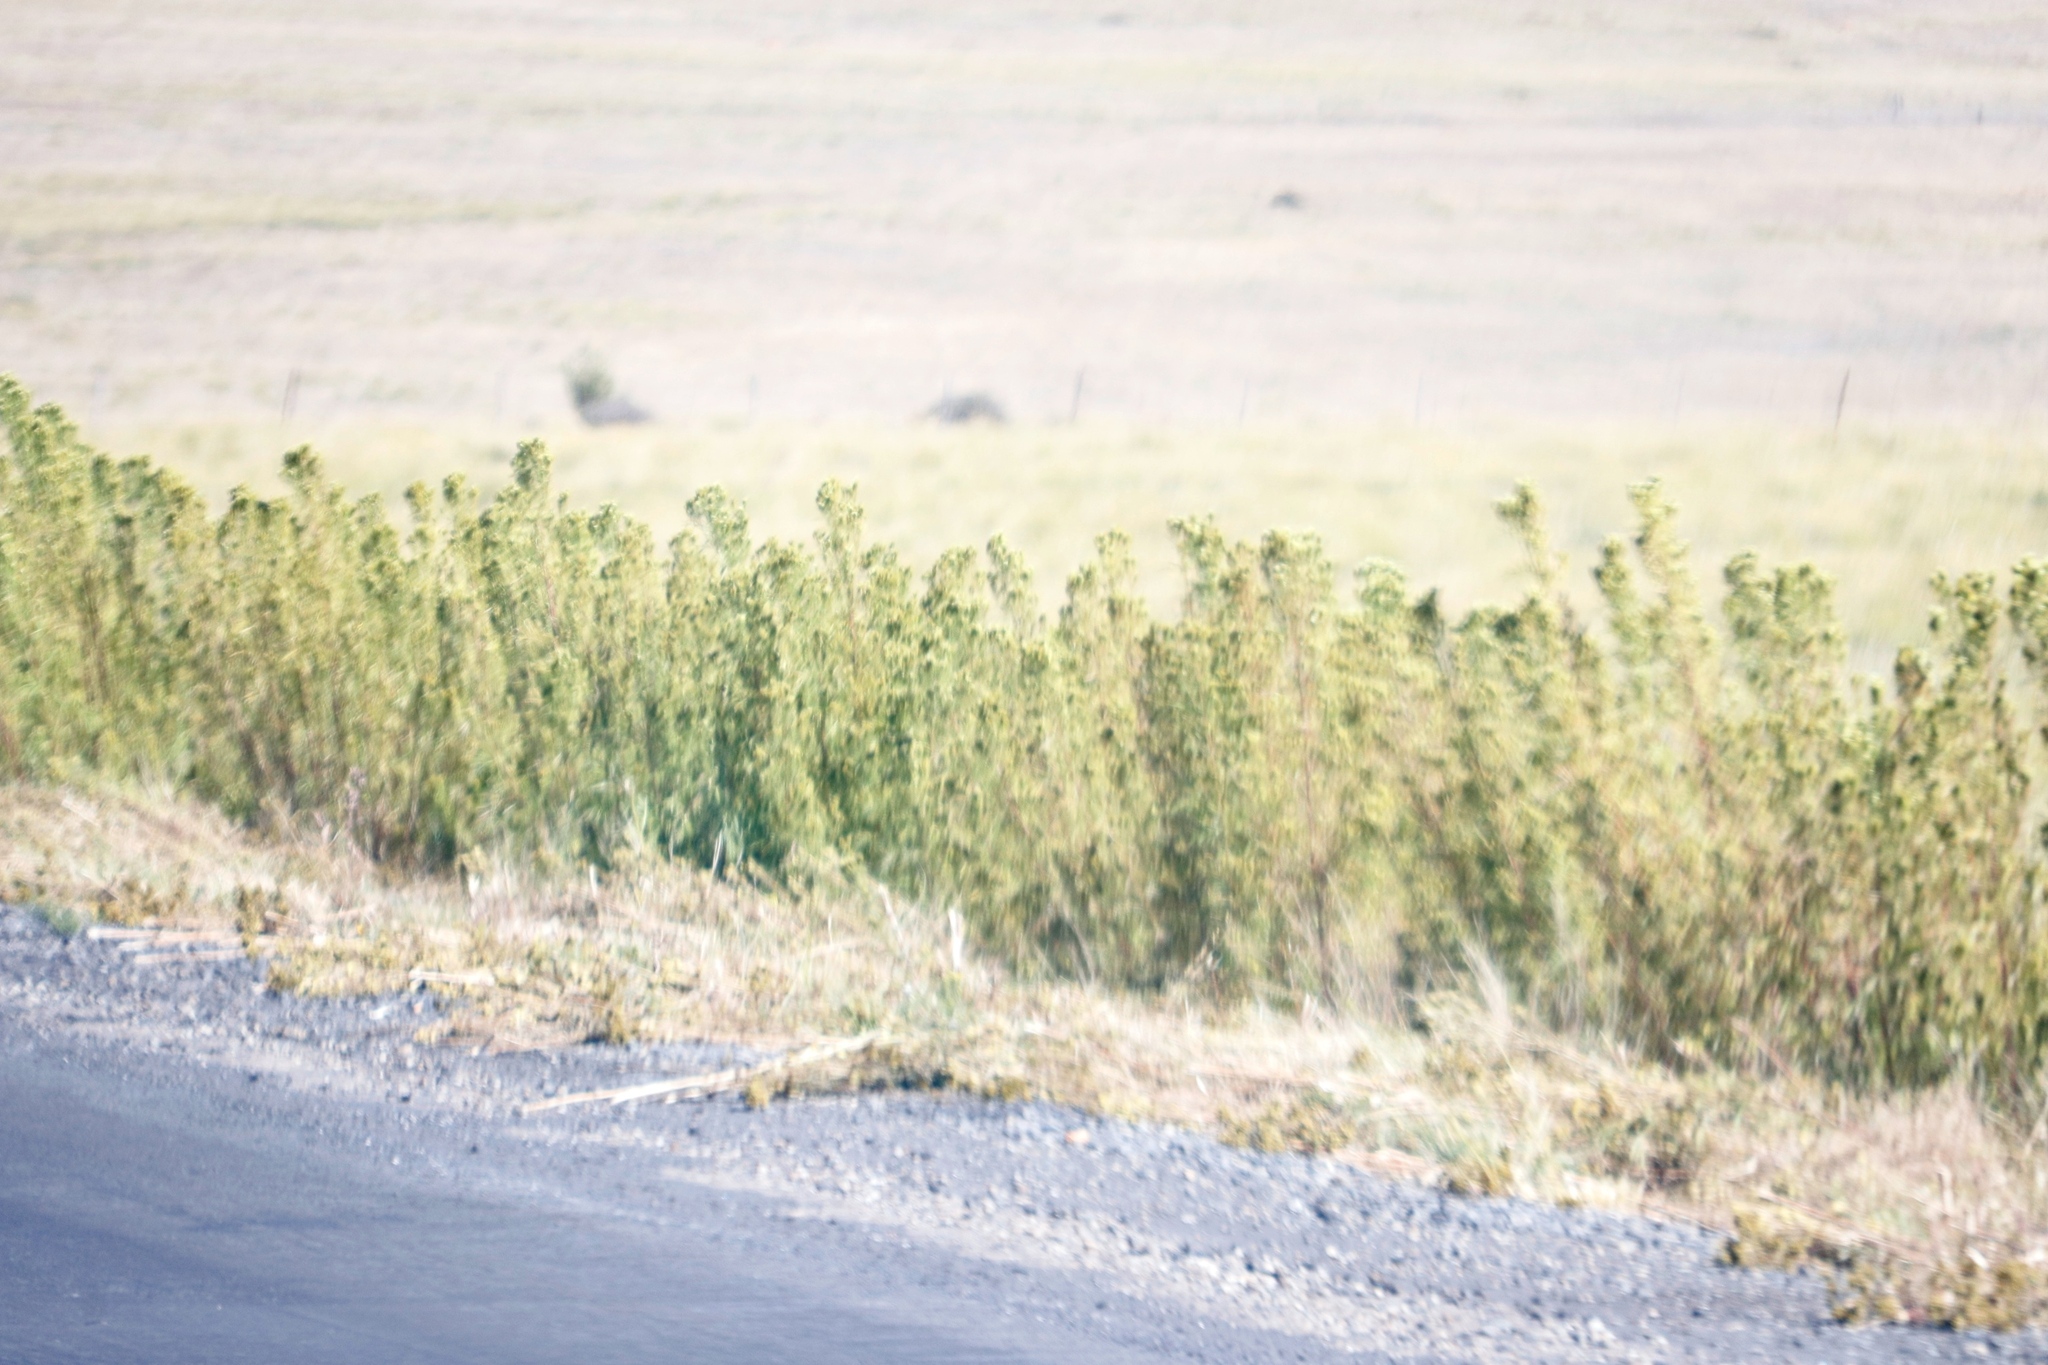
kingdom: Plantae
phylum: Tracheophyta
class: Magnoliopsida
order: Asterales
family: Asteraceae
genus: Tagetes
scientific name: Tagetes minuta
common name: Muster john henry
